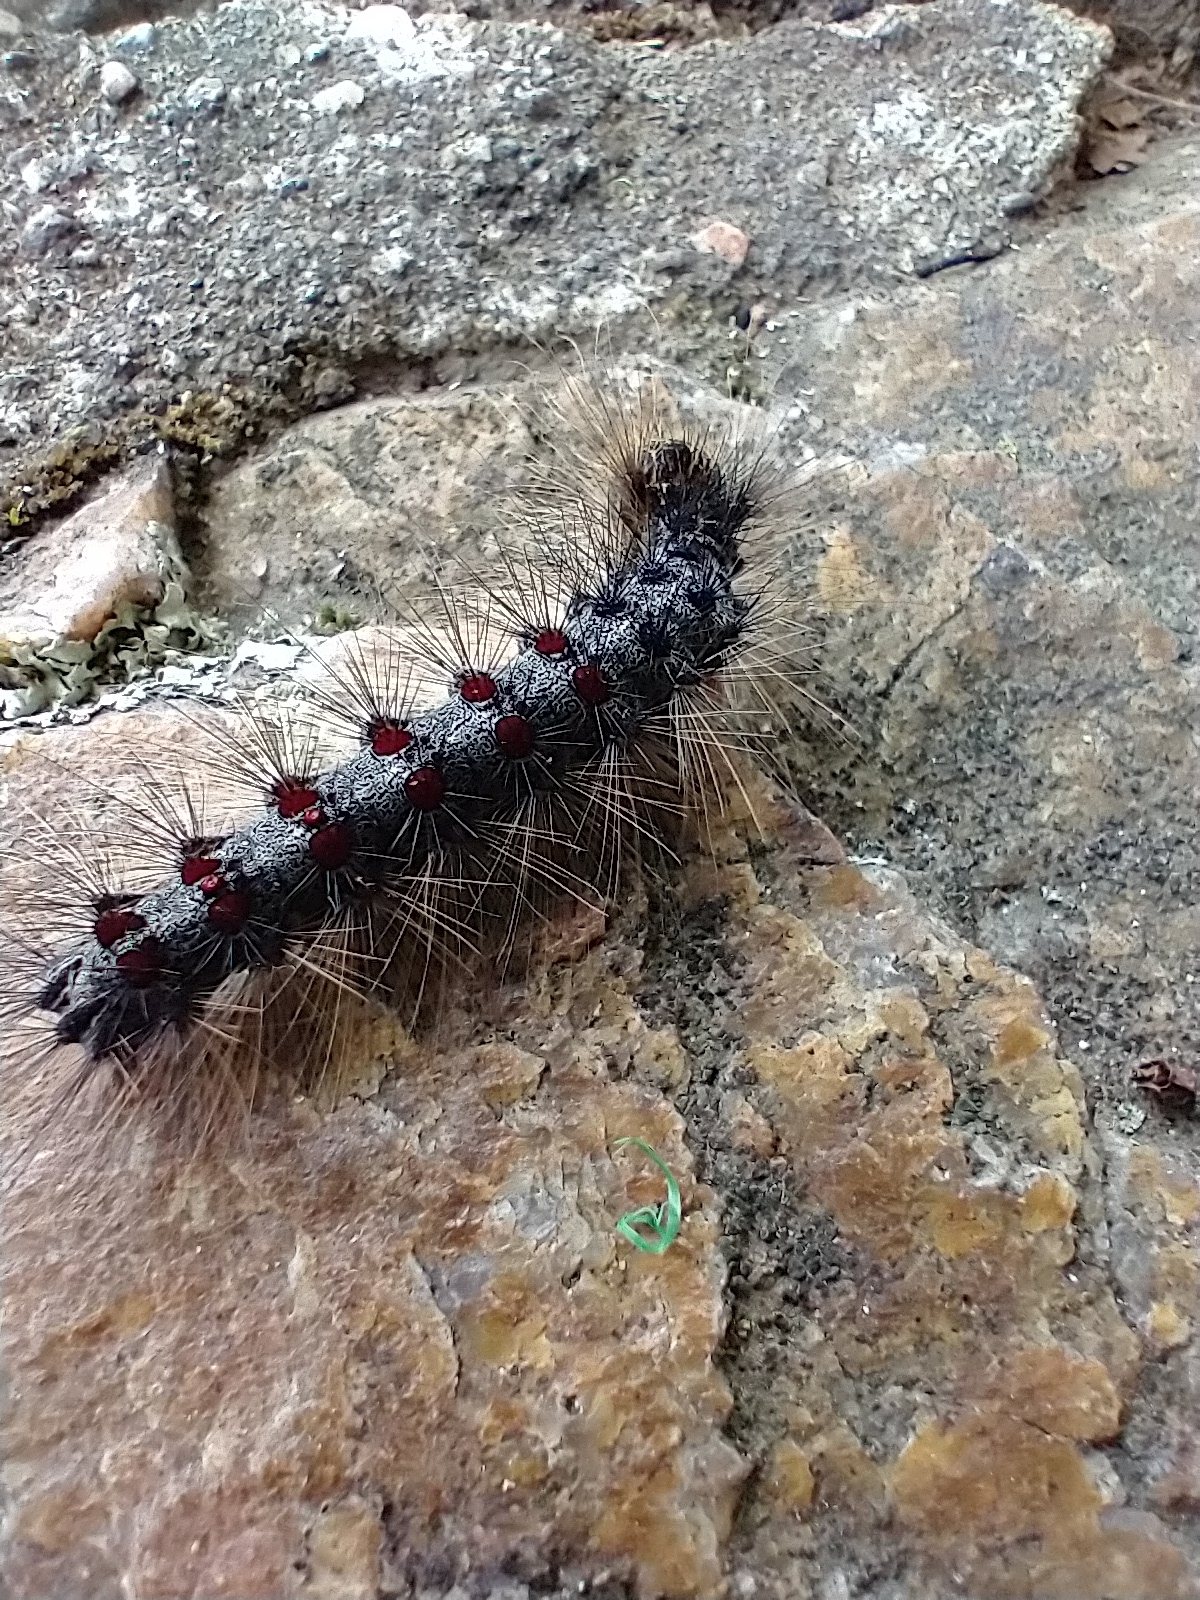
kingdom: Animalia
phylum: Arthropoda
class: Insecta
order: Lepidoptera
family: Erebidae
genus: Lymantria
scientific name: Lymantria dispar
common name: Gypsy moth
